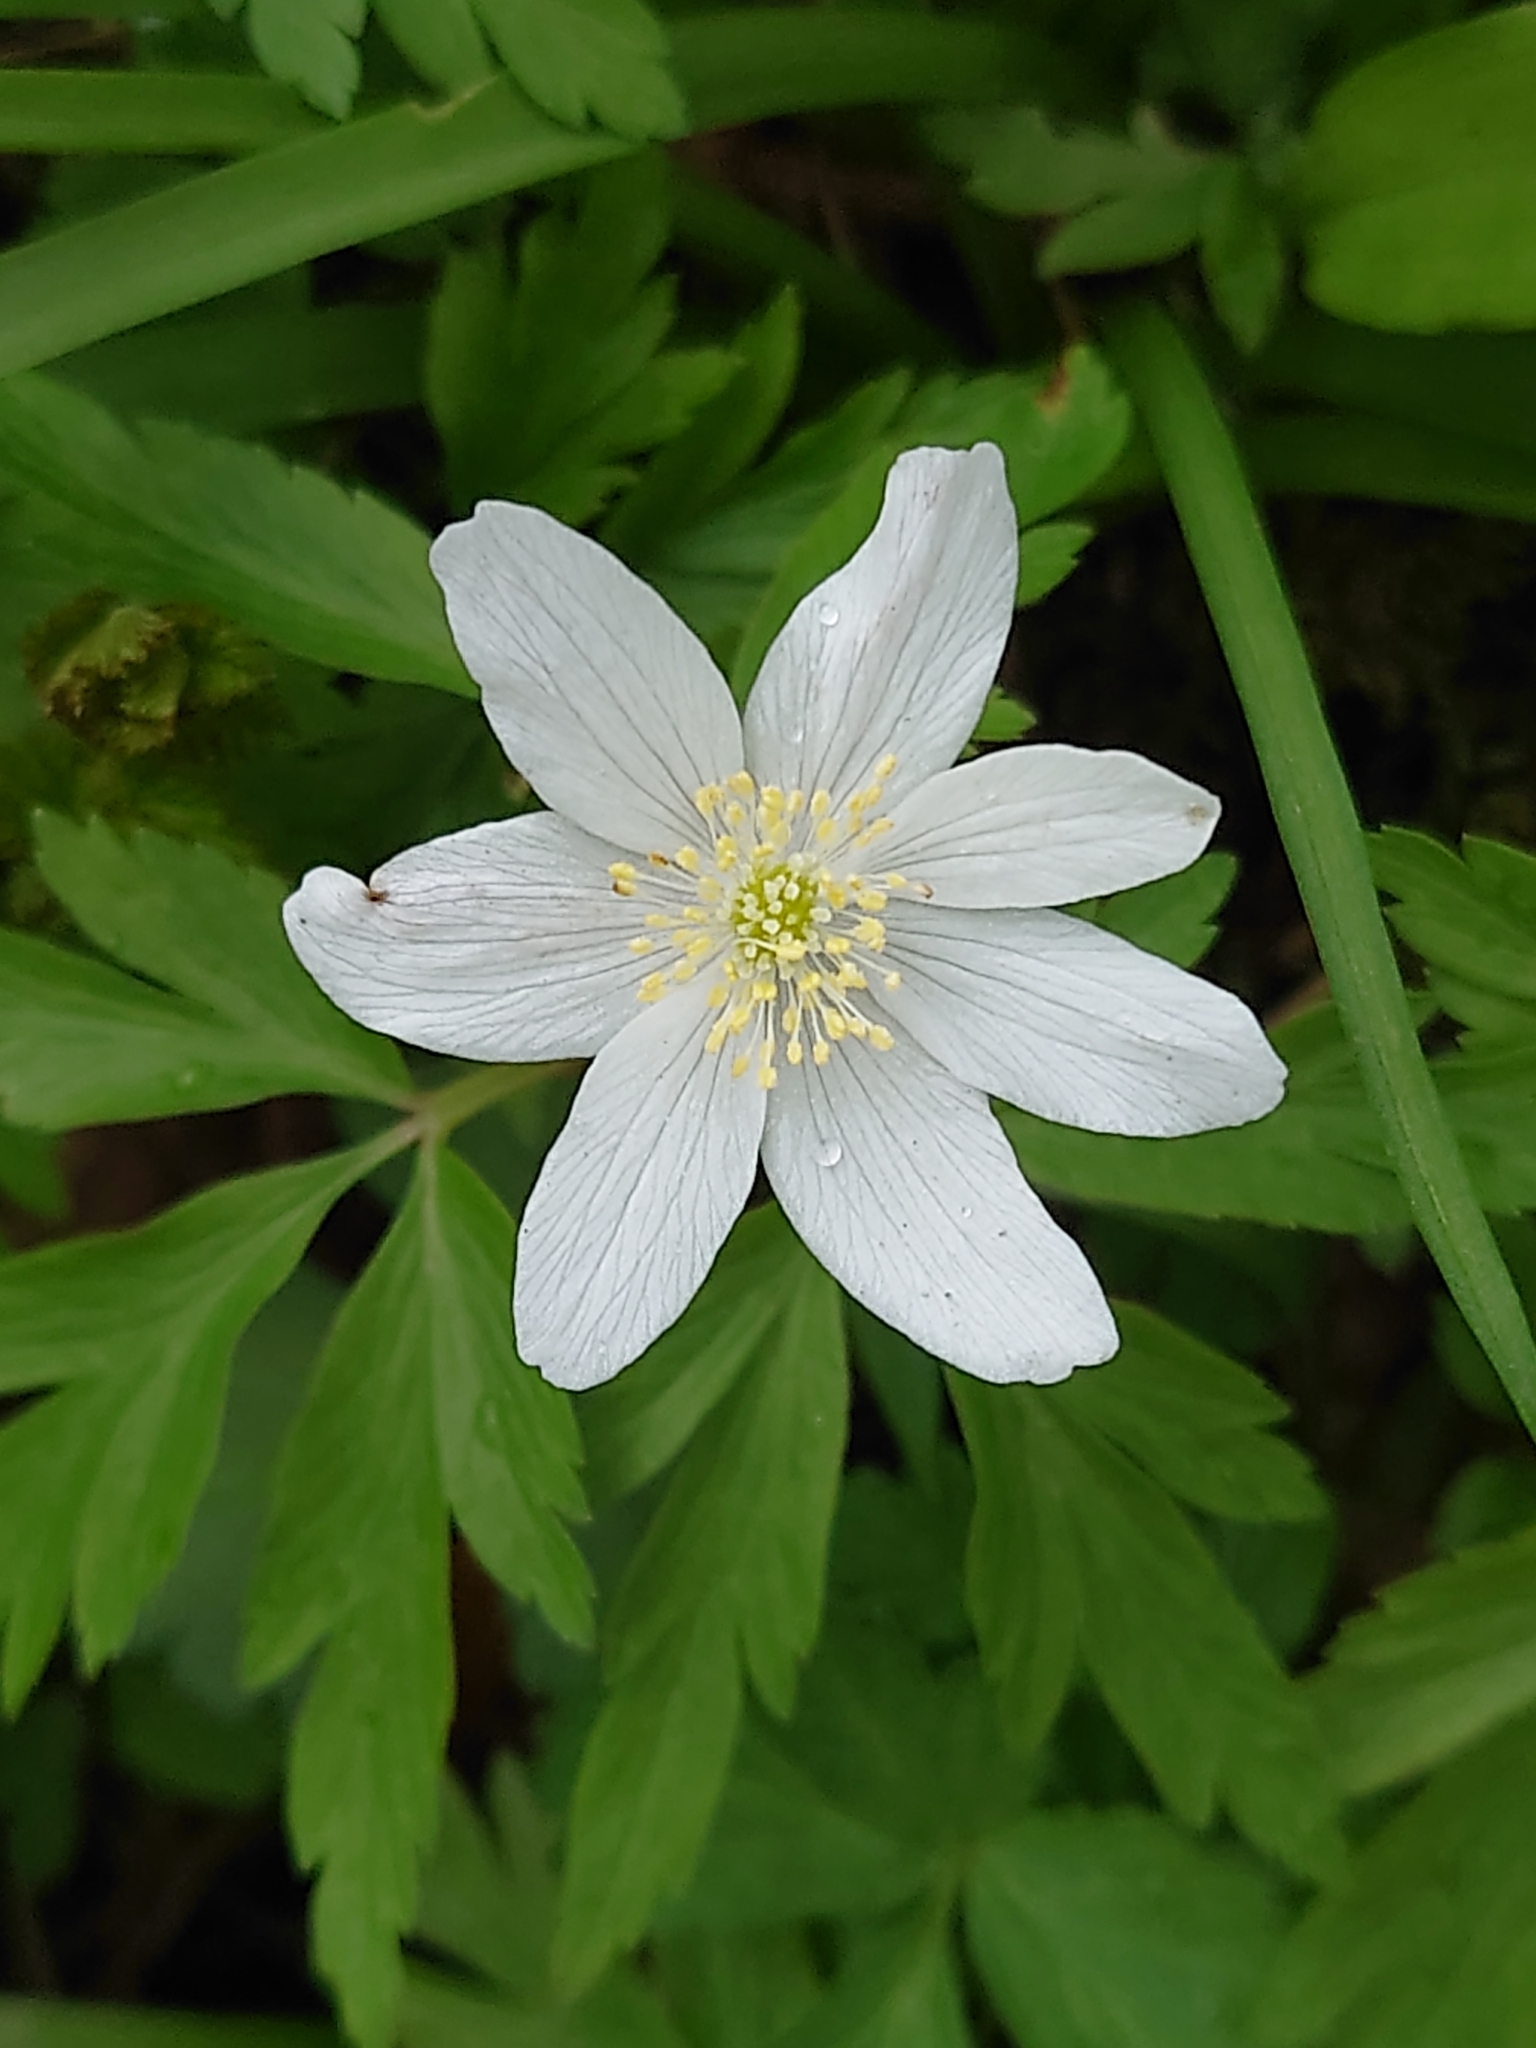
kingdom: Plantae
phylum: Tracheophyta
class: Magnoliopsida
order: Ranunculales
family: Ranunculaceae
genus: Anemone
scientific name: Anemone nemorosa
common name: Wood anemone
